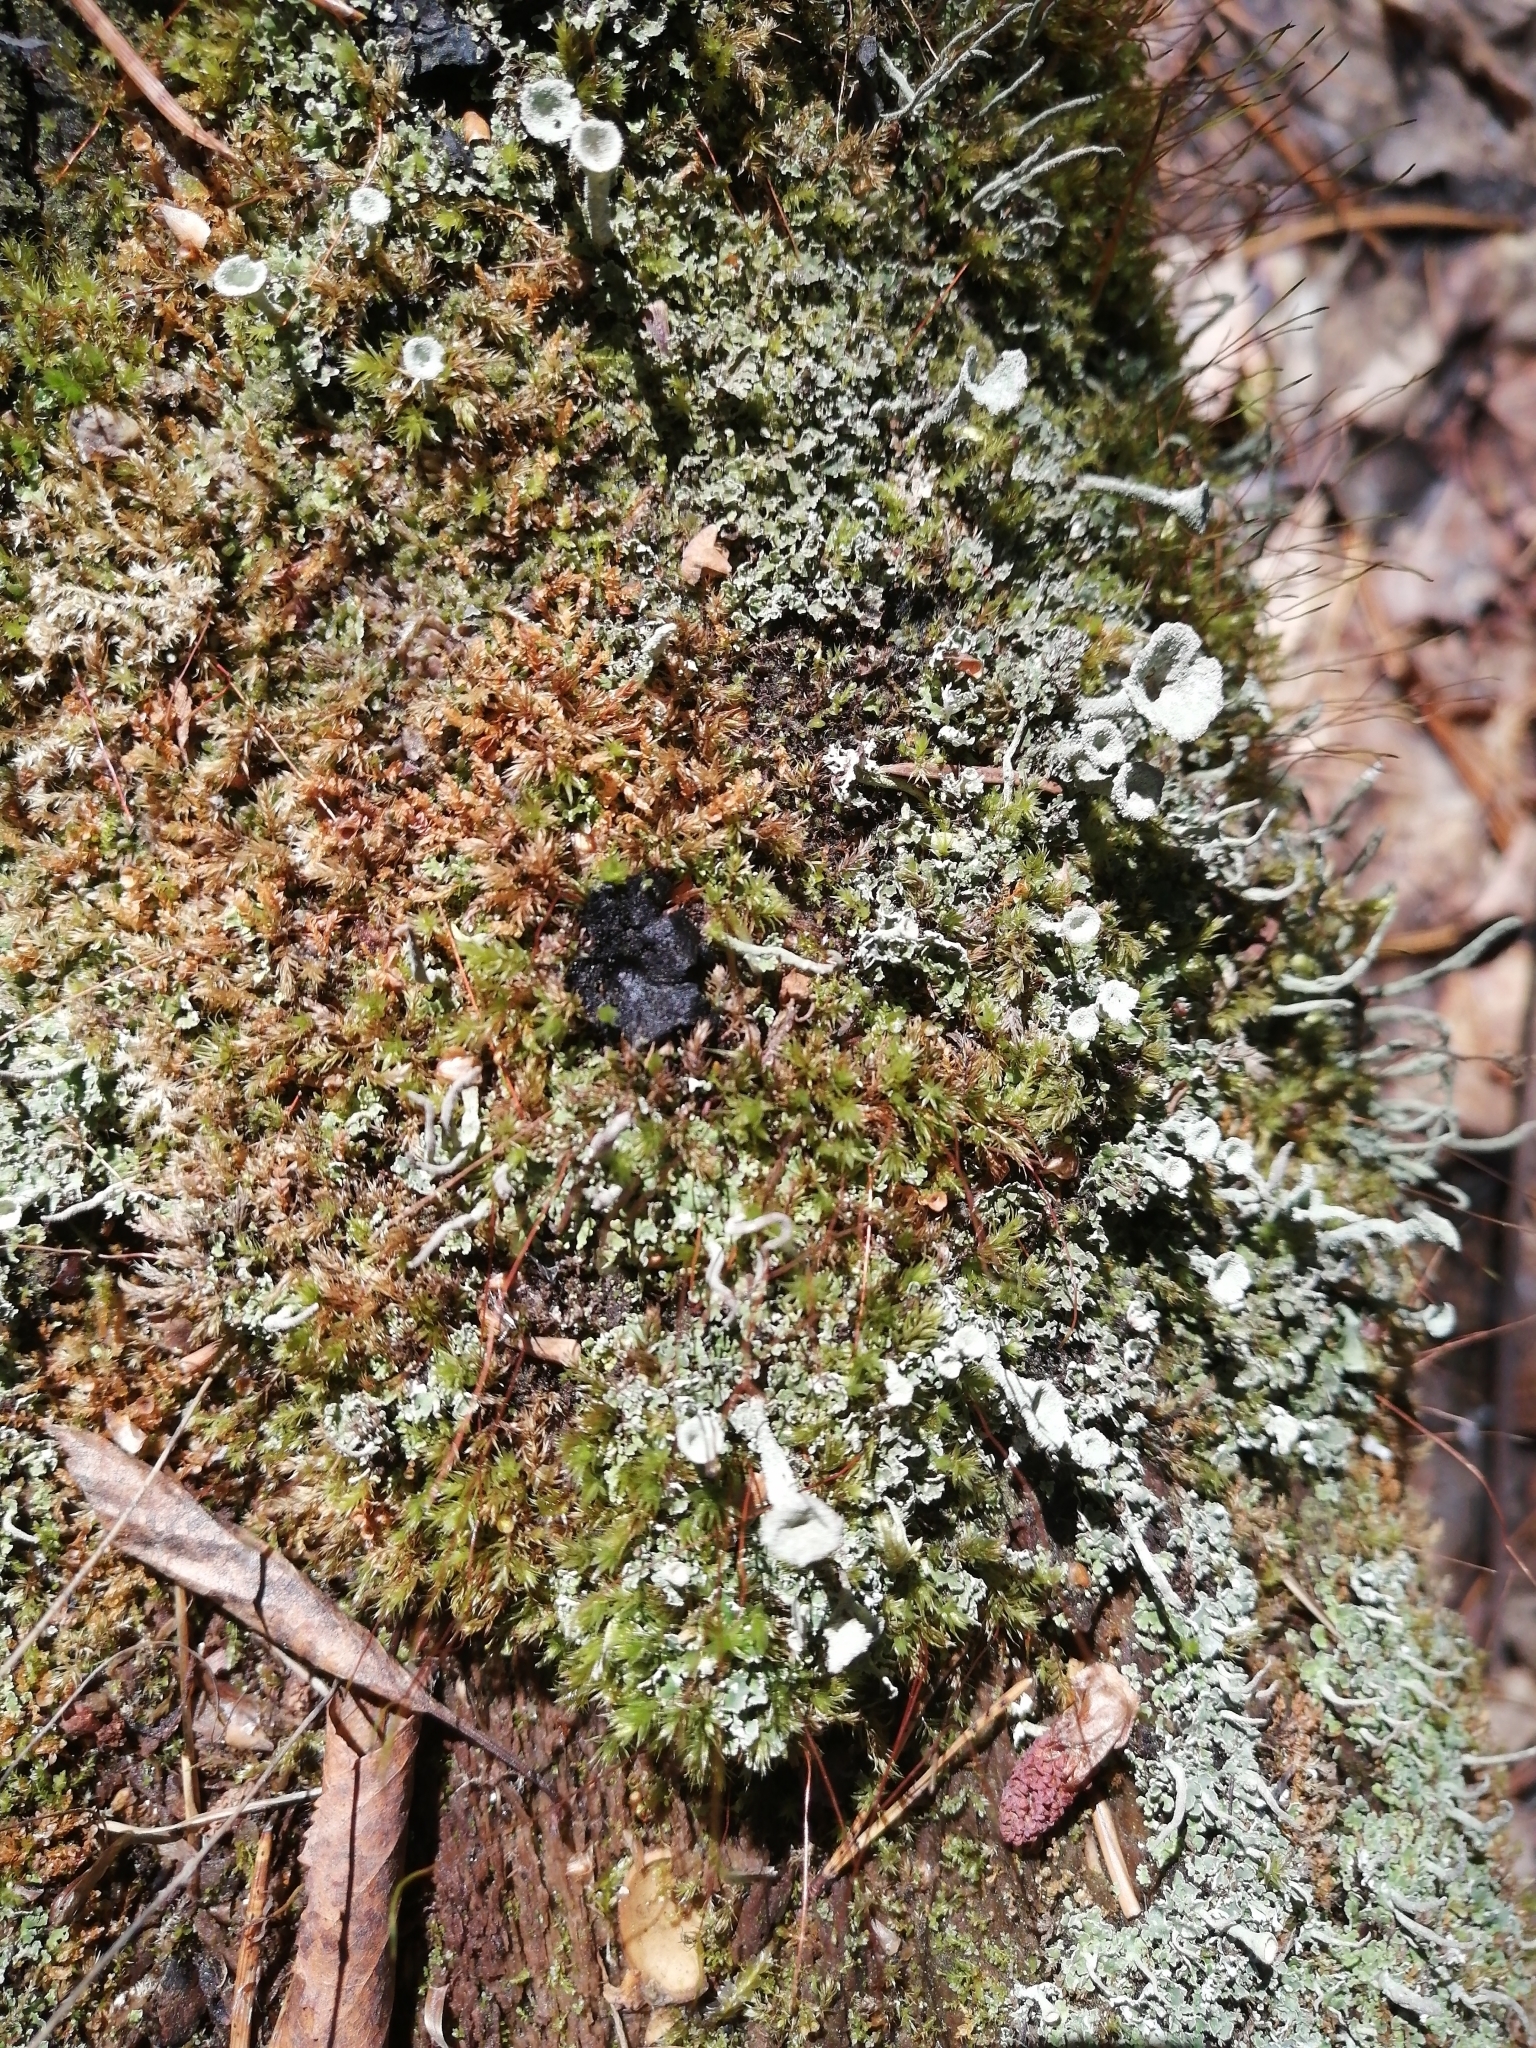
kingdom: Fungi
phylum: Ascomycota
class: Pezizomycetes
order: Pezizales
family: Sarcosomataceae
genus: Pseudoplectania
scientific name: Pseudoplectania nigrella
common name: Ebony cup
